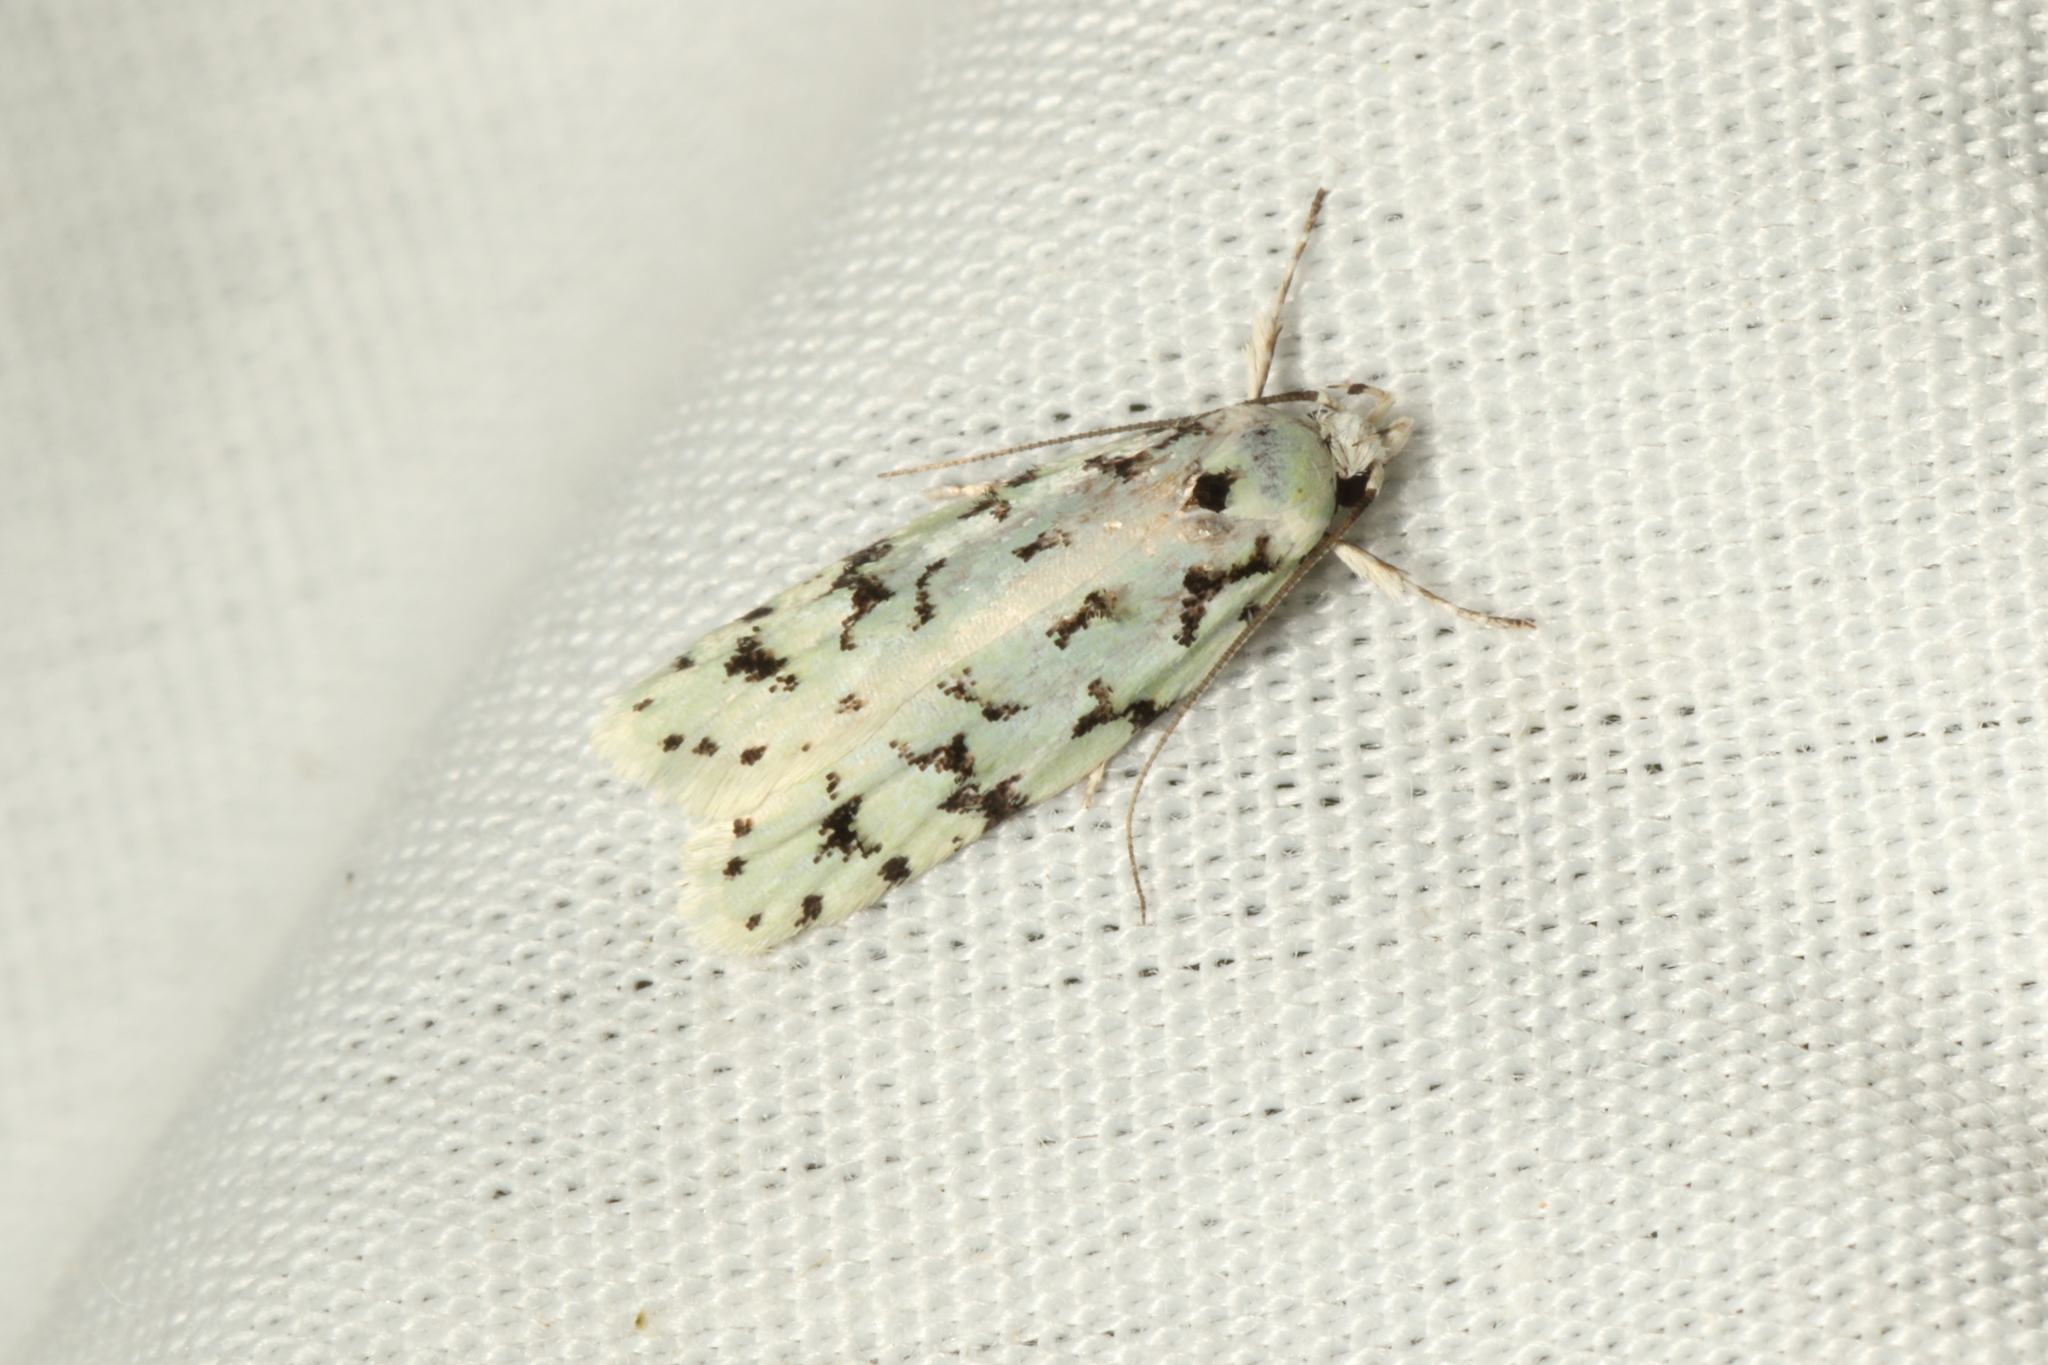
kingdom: Animalia
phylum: Arthropoda
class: Insecta
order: Lepidoptera
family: Oecophoridae
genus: Izatha
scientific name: Izatha peroneanella
